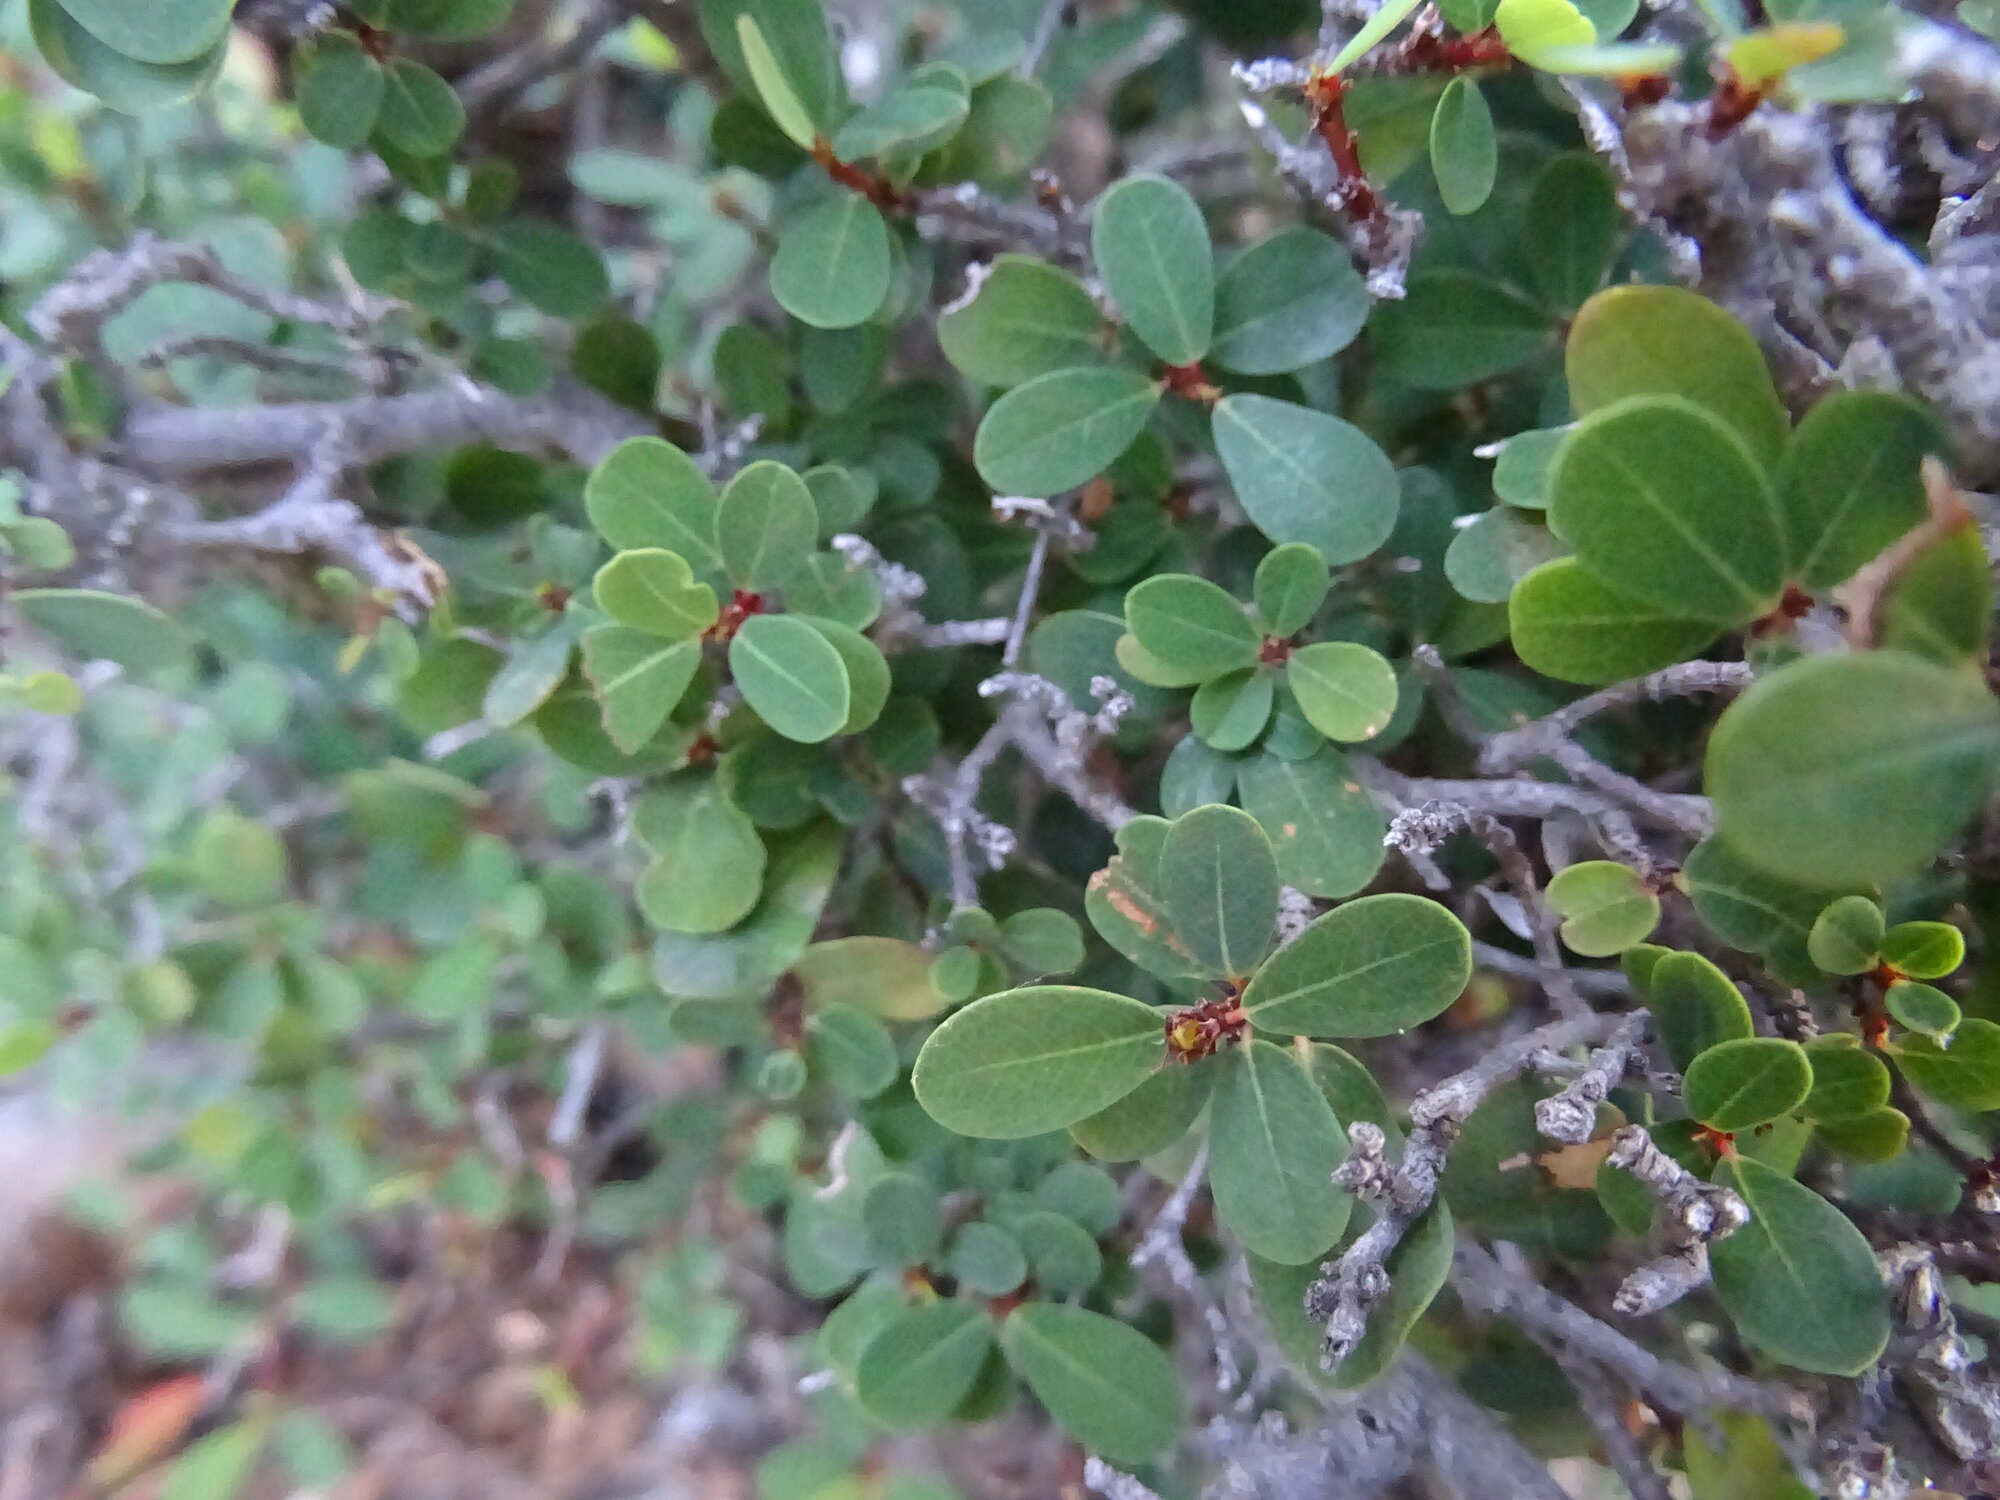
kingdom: Plantae
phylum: Tracheophyta
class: Magnoliopsida
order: Rosales
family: Moraceae
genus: Ficus
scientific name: Ficus burtt-davyi
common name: Scrambling fig
